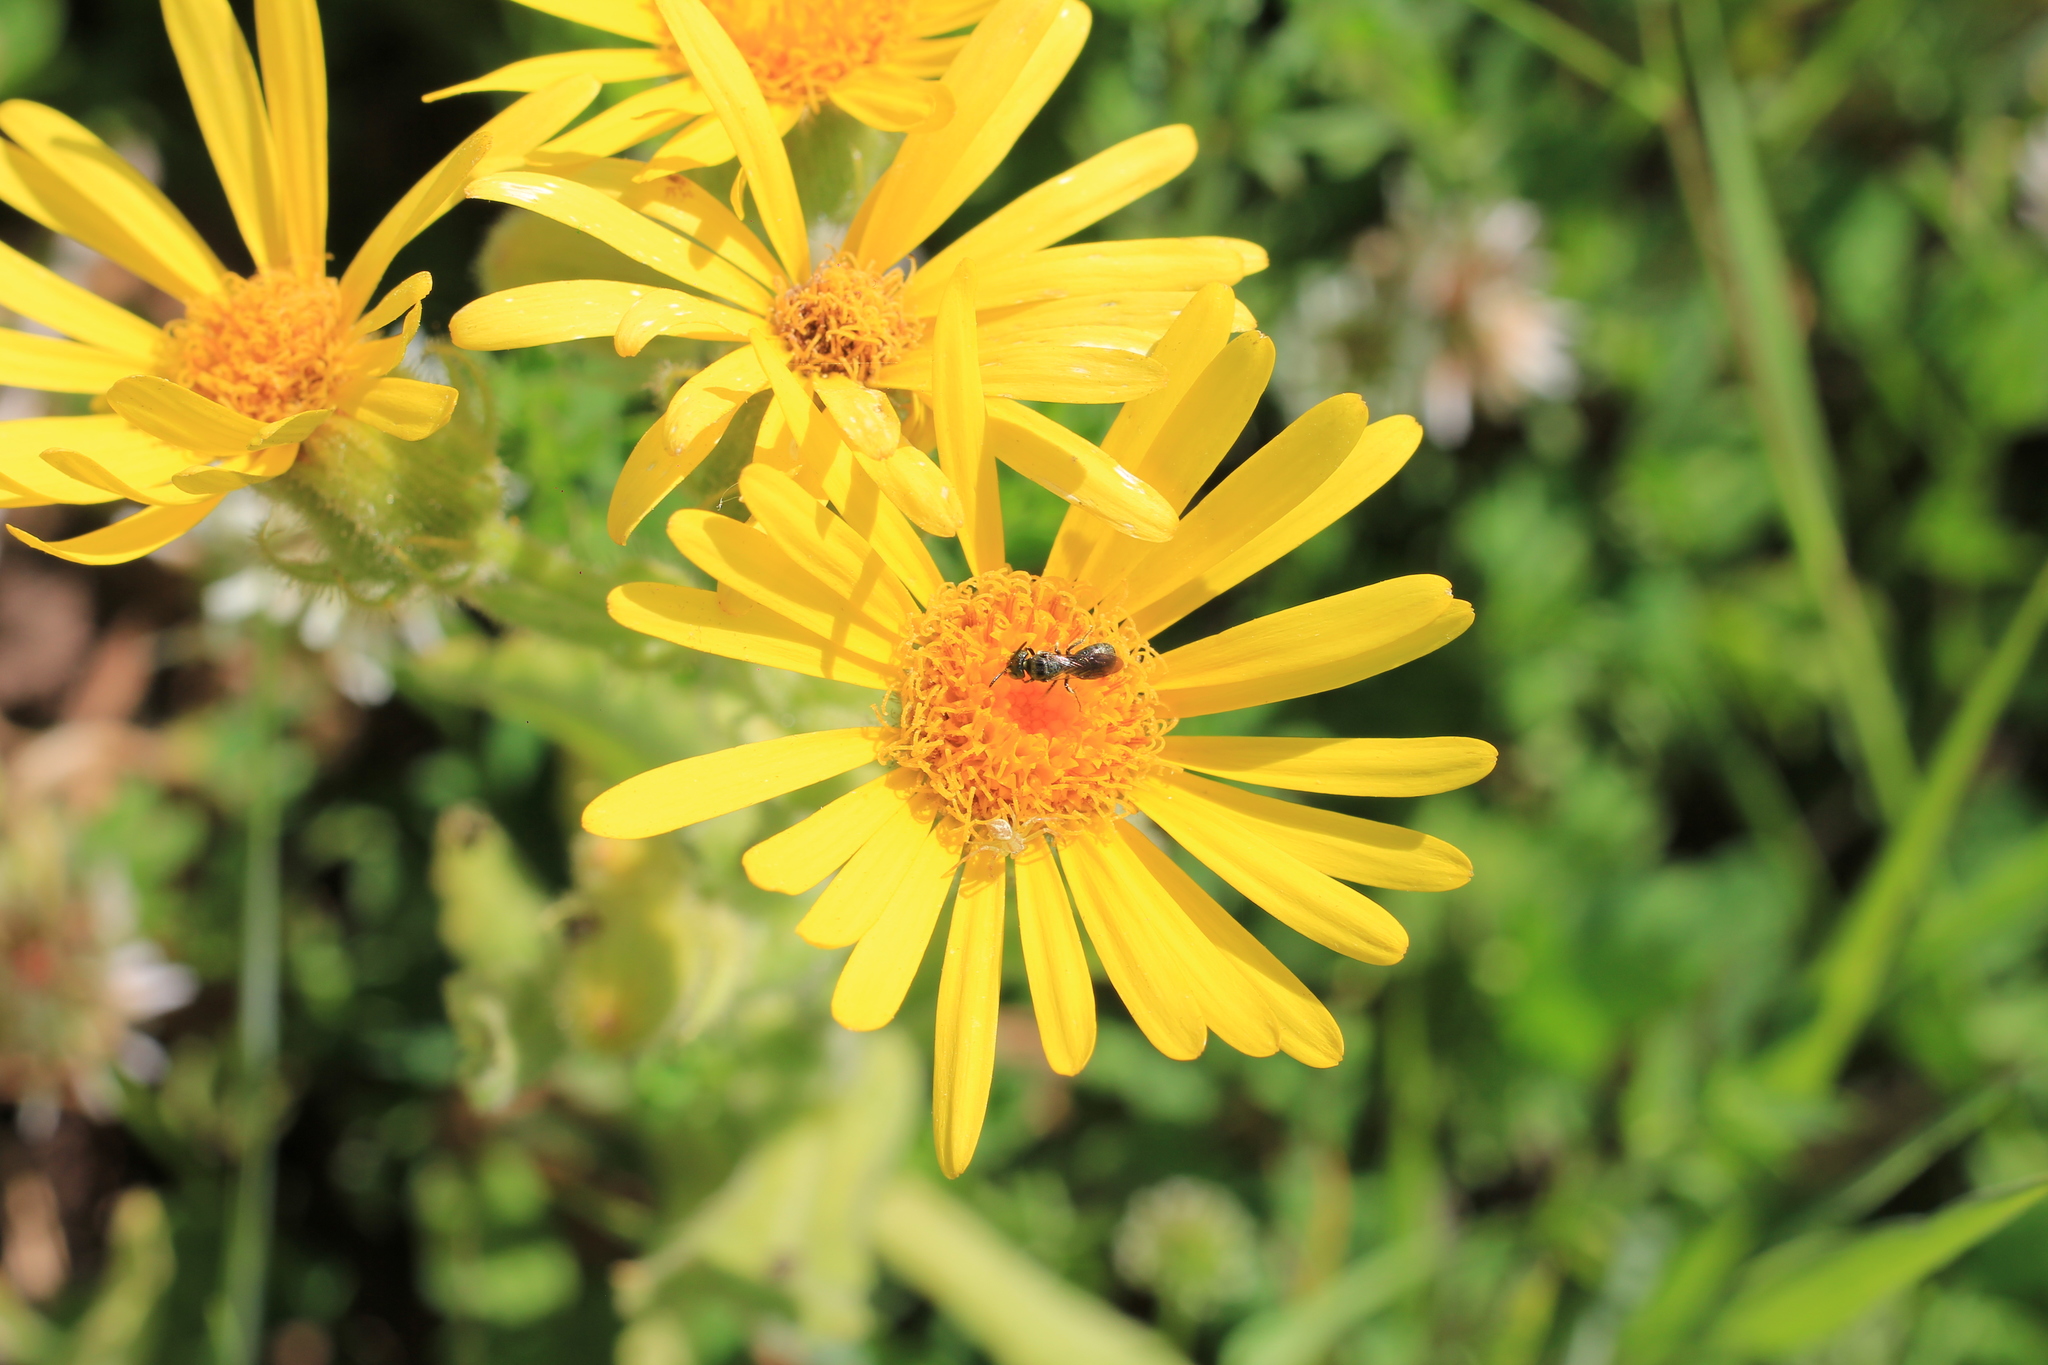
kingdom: Animalia
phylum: Arthropoda
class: Insecta
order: Hymenoptera
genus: Rhysoceratina
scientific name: Rhysoceratina
